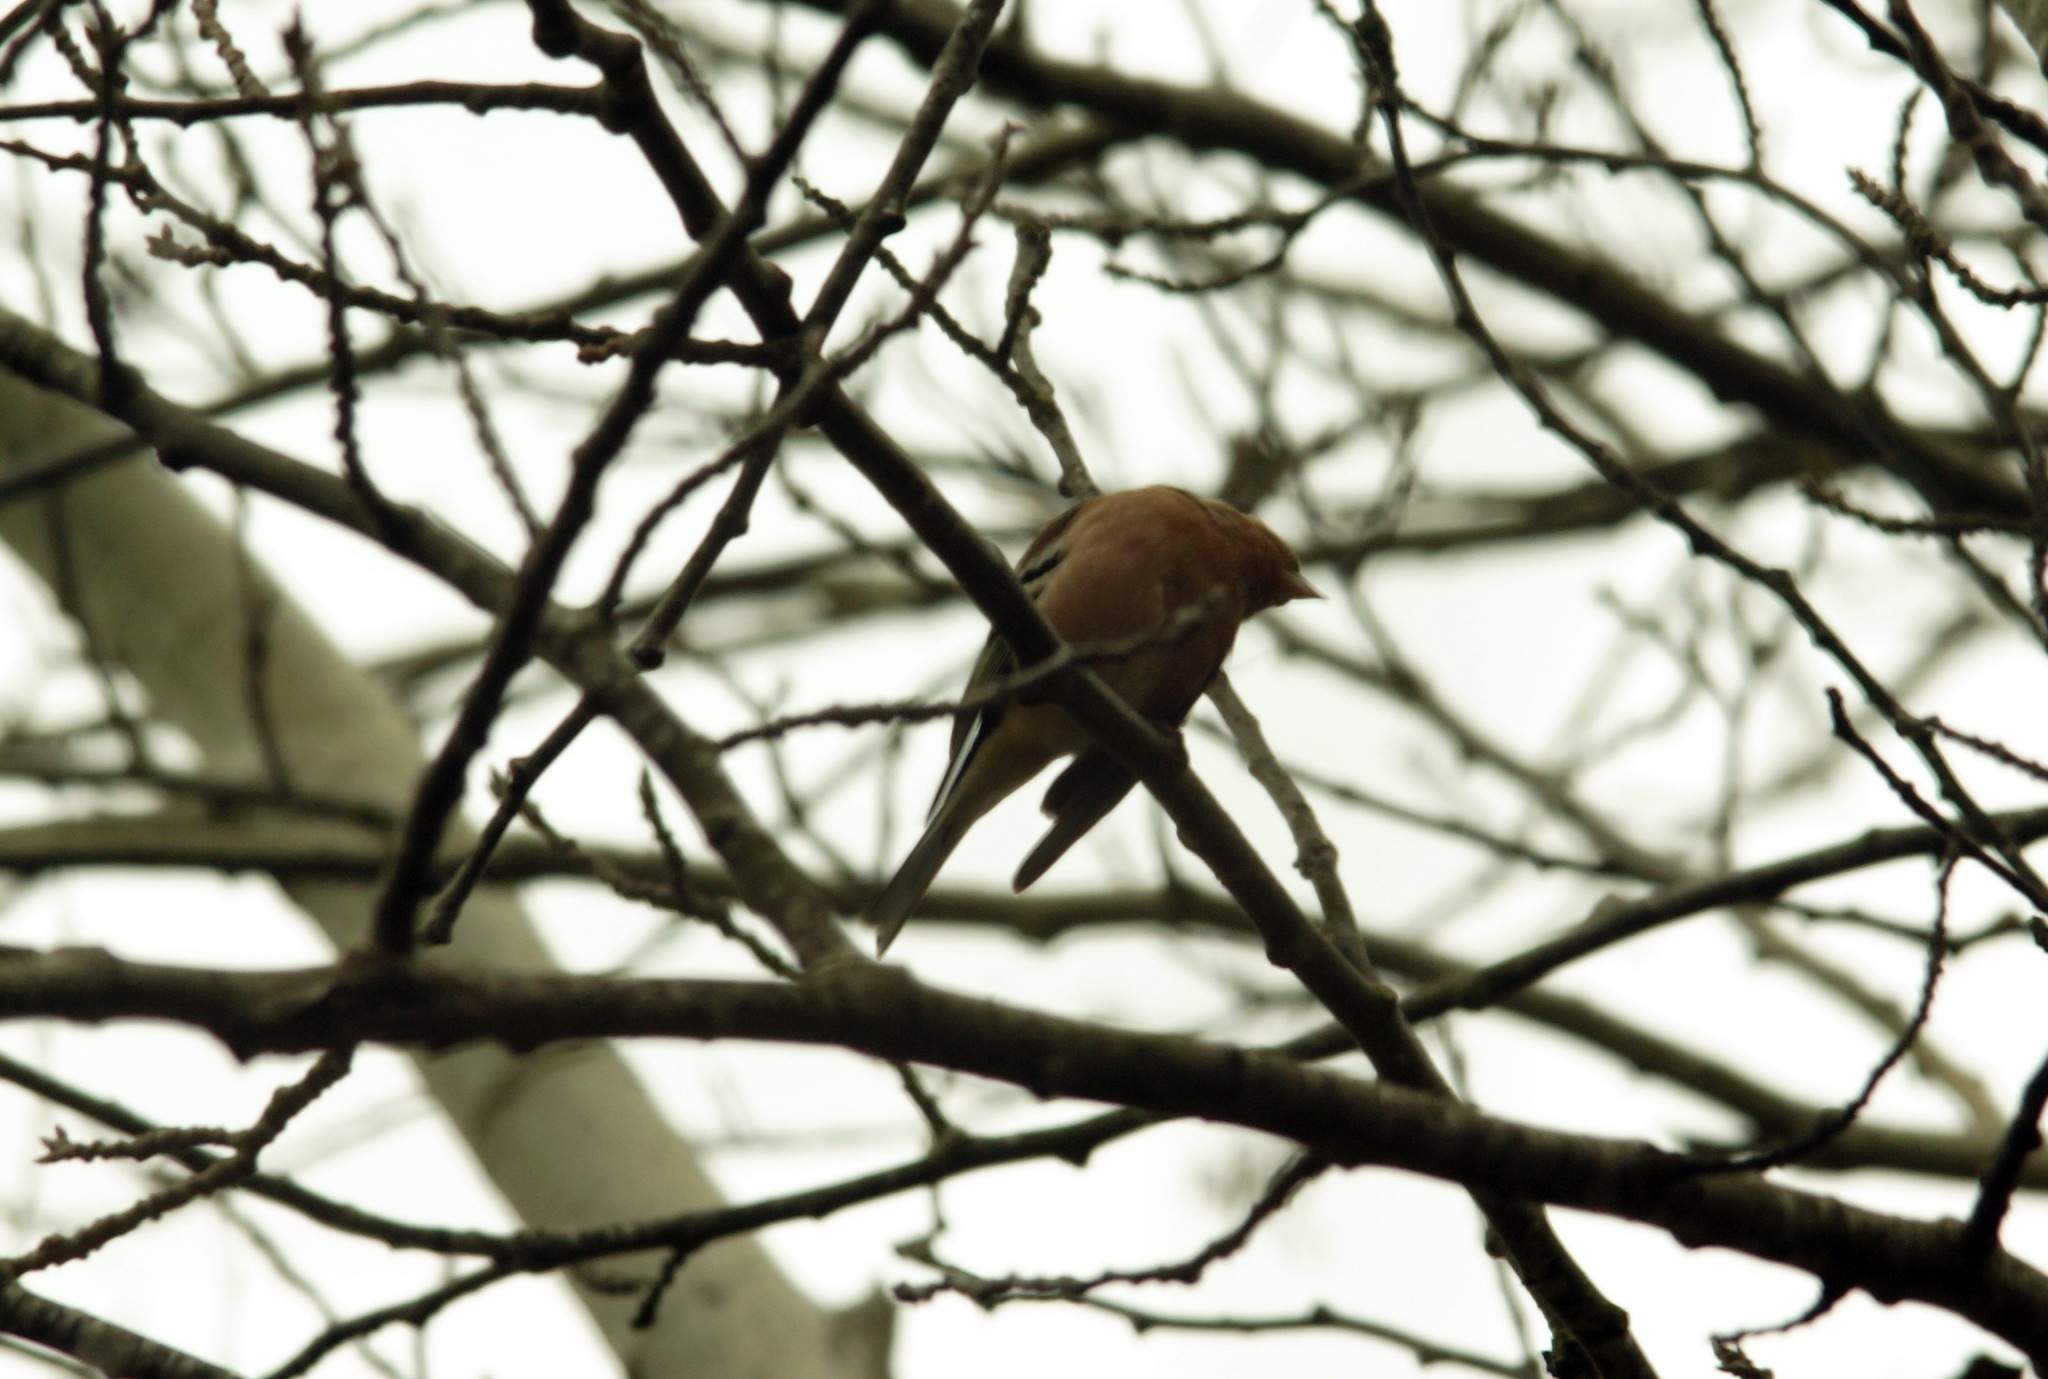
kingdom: Animalia
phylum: Chordata
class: Aves
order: Passeriformes
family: Fringillidae
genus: Fringilla
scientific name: Fringilla coelebs
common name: Common chaffinch
